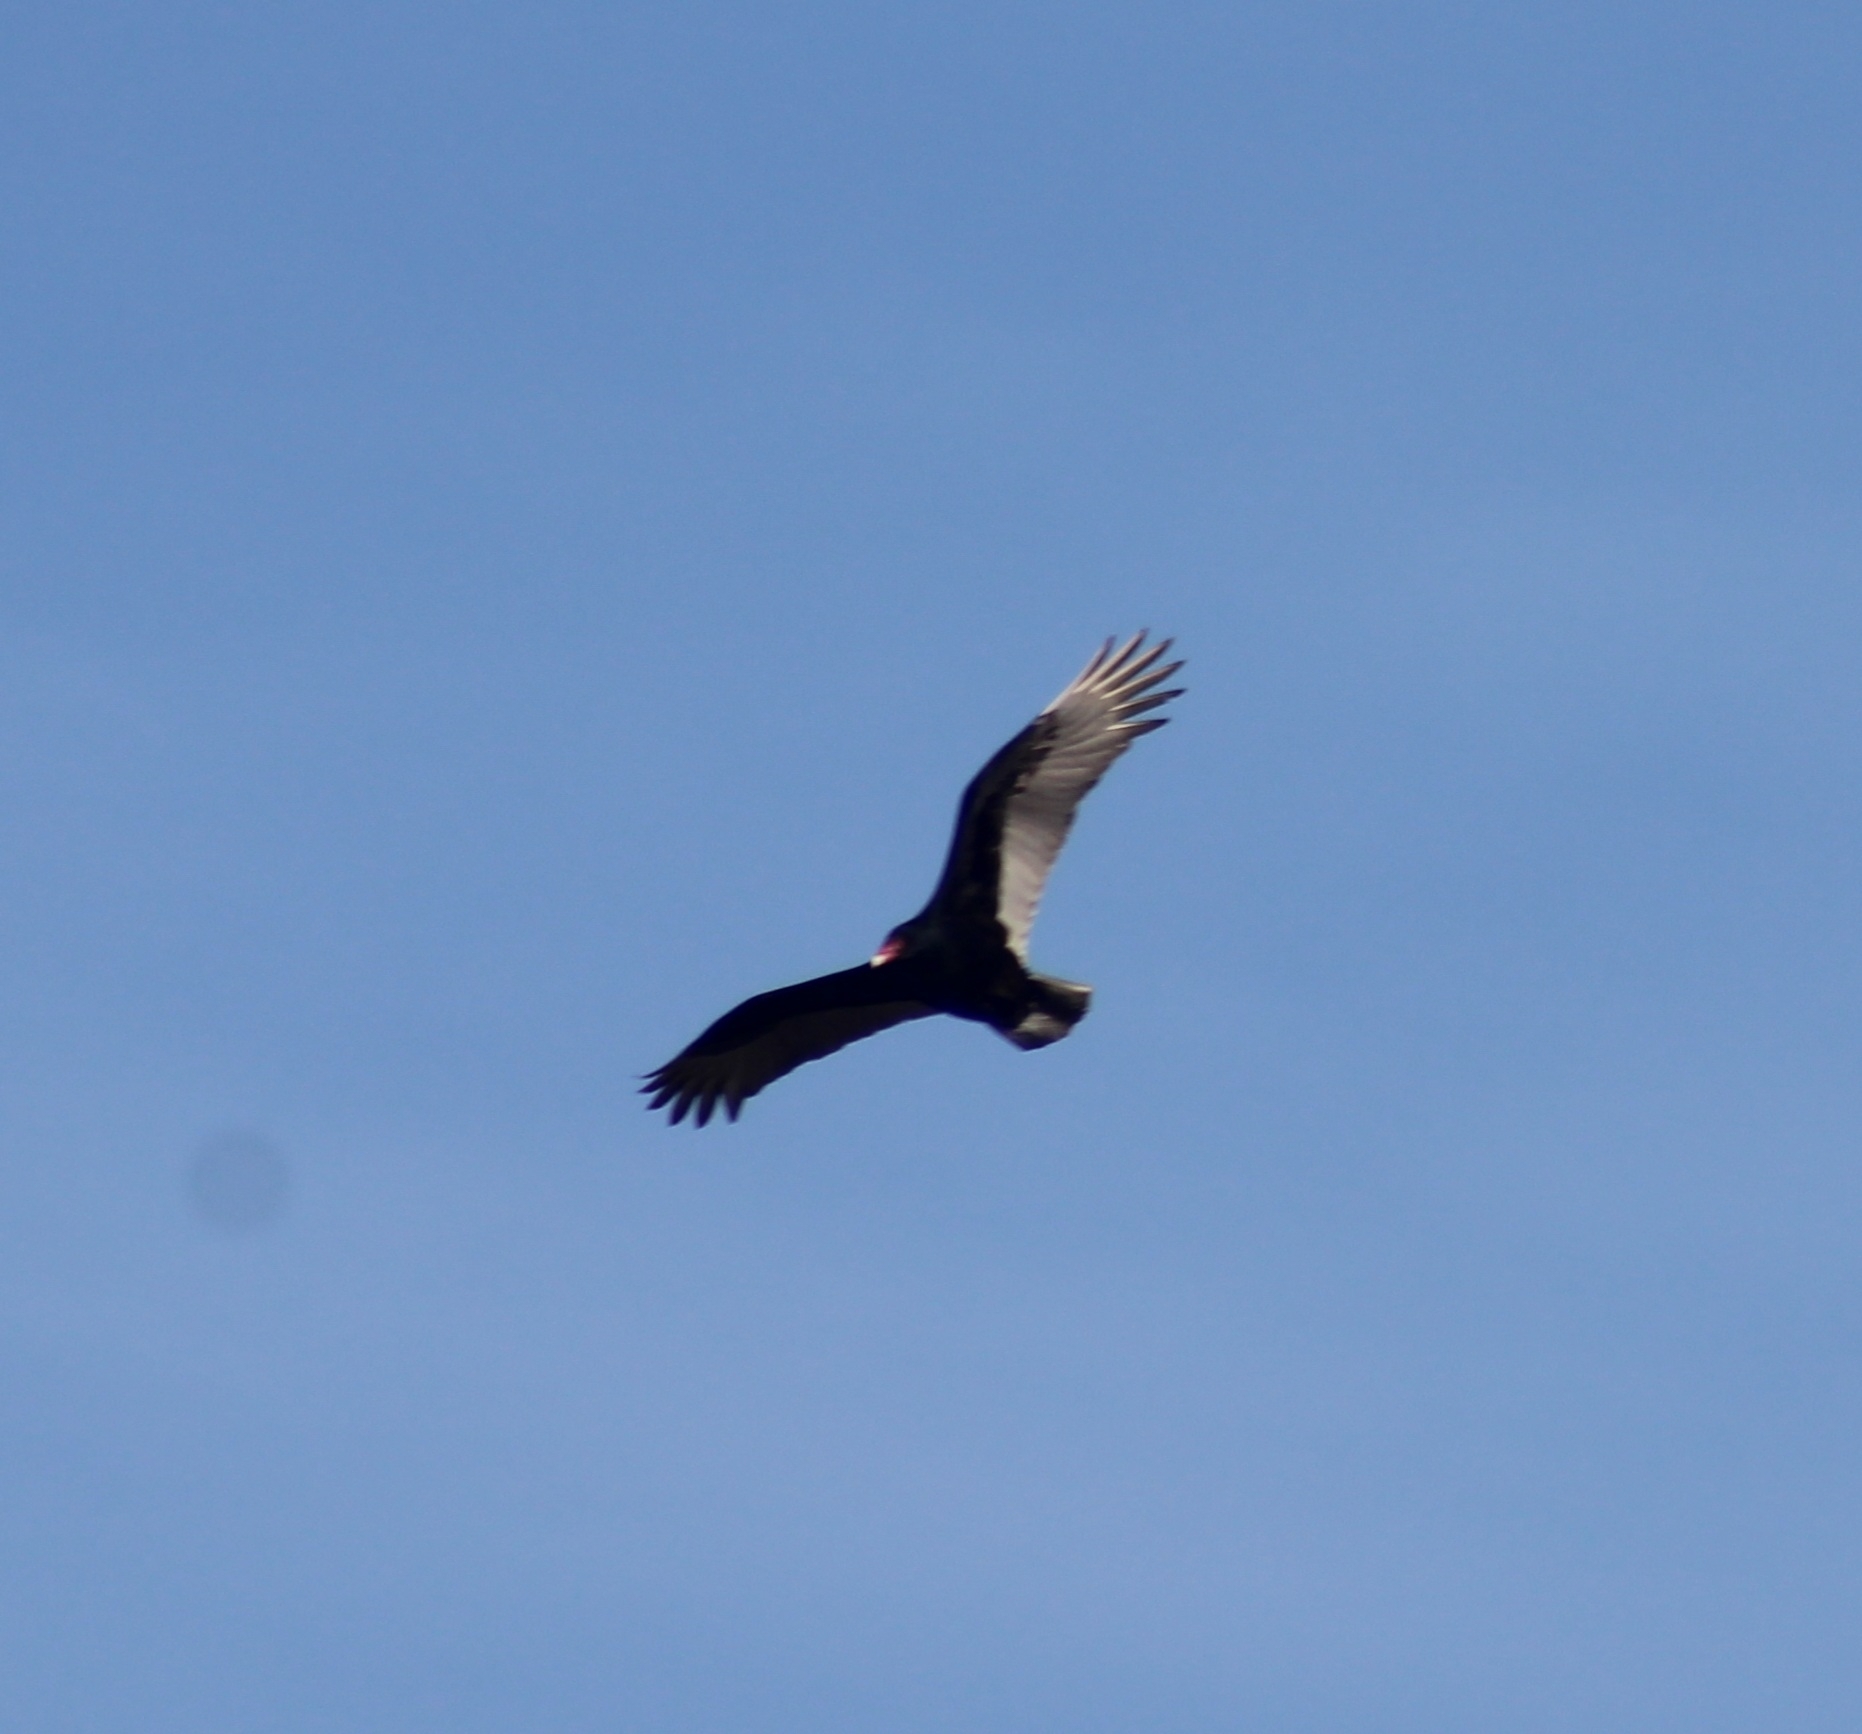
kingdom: Animalia
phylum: Chordata
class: Aves
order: Accipitriformes
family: Cathartidae
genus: Cathartes
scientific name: Cathartes aura
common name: Turkey vulture
